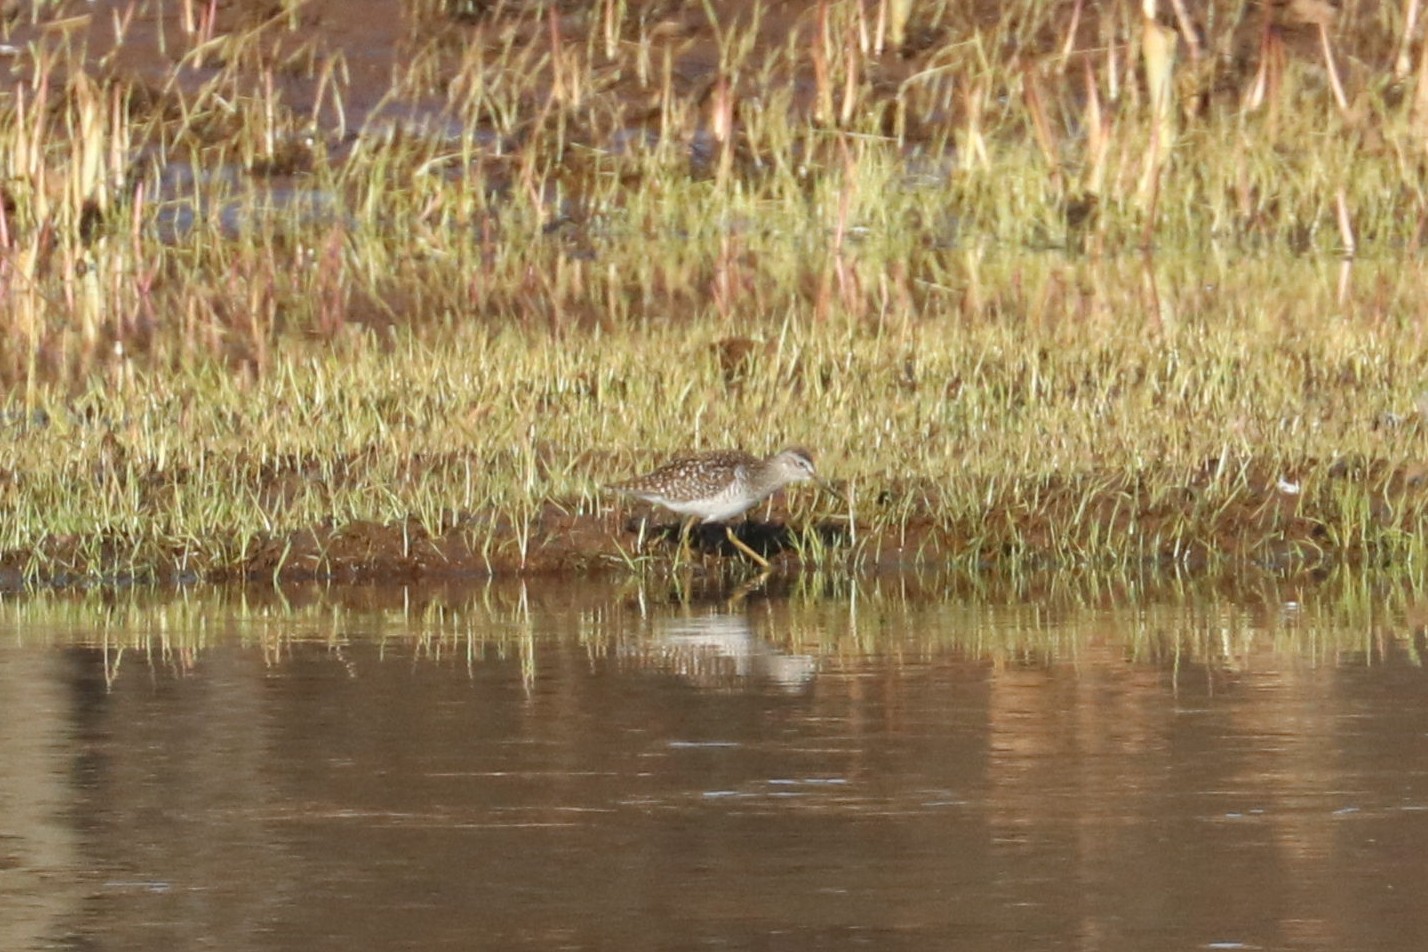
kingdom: Animalia
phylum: Chordata
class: Aves
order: Charadriiformes
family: Scolopacidae
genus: Tringa
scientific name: Tringa glareola
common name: Wood sandpiper
